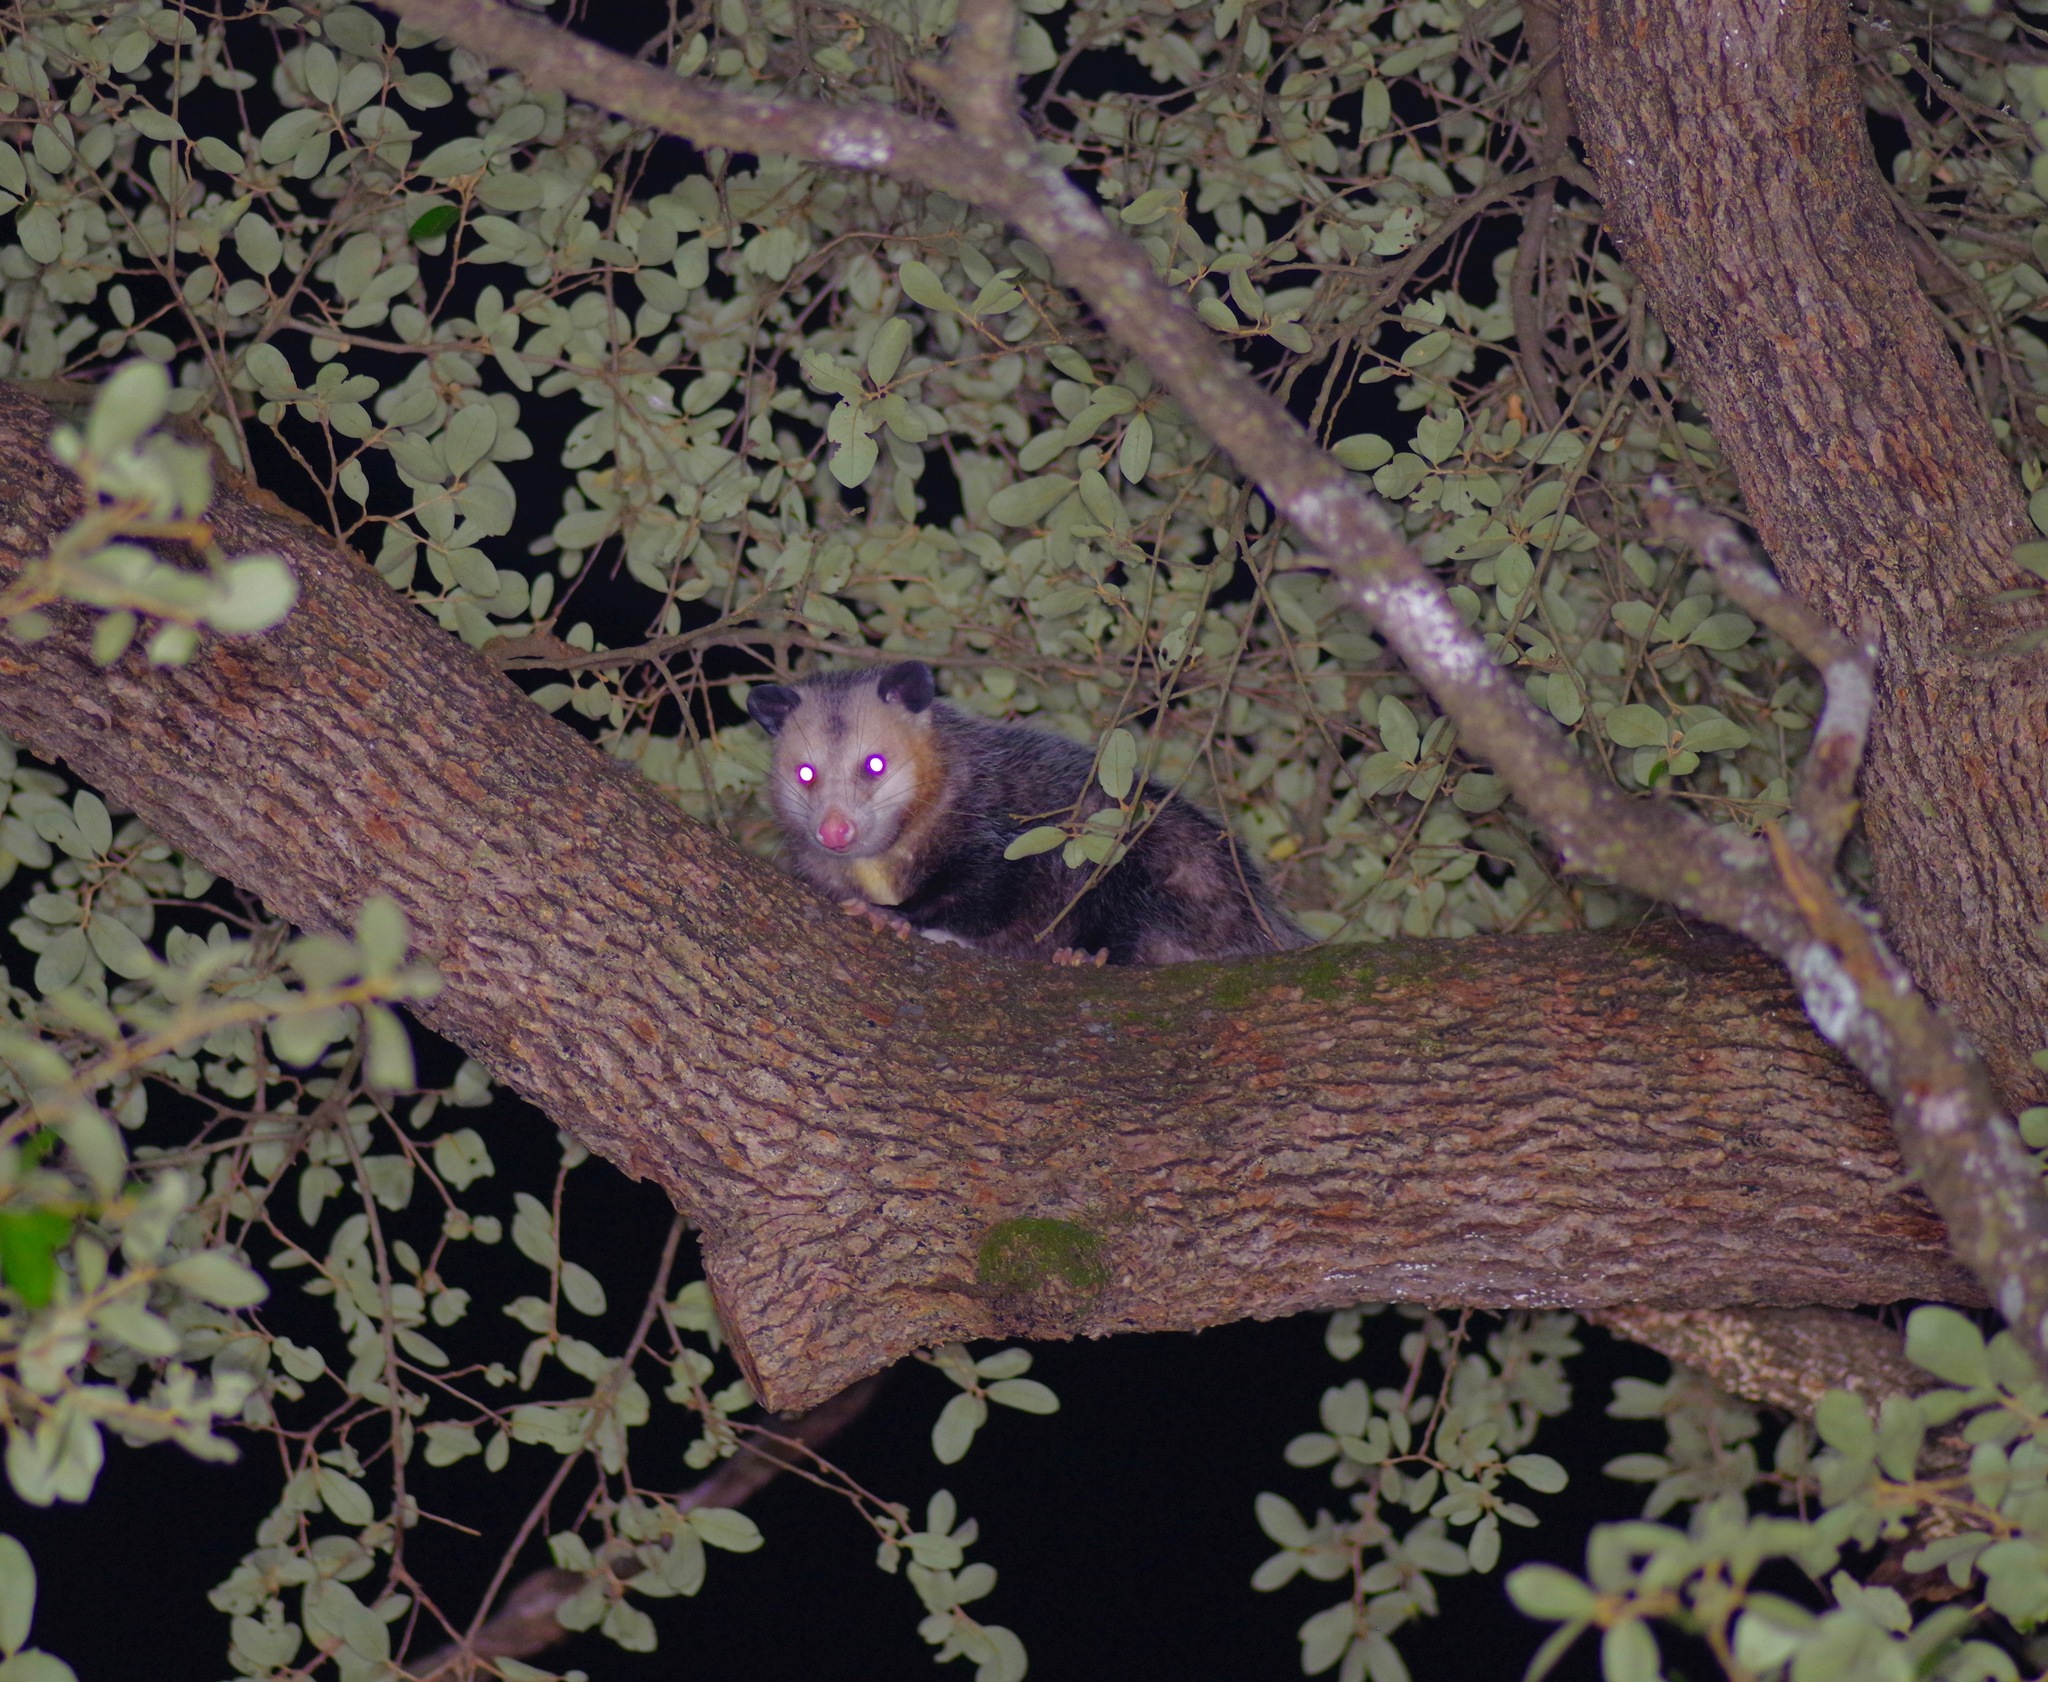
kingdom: Animalia
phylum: Chordata
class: Mammalia
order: Didelphimorphia
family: Didelphidae
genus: Didelphis
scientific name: Didelphis virginiana
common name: Virginia opossum
